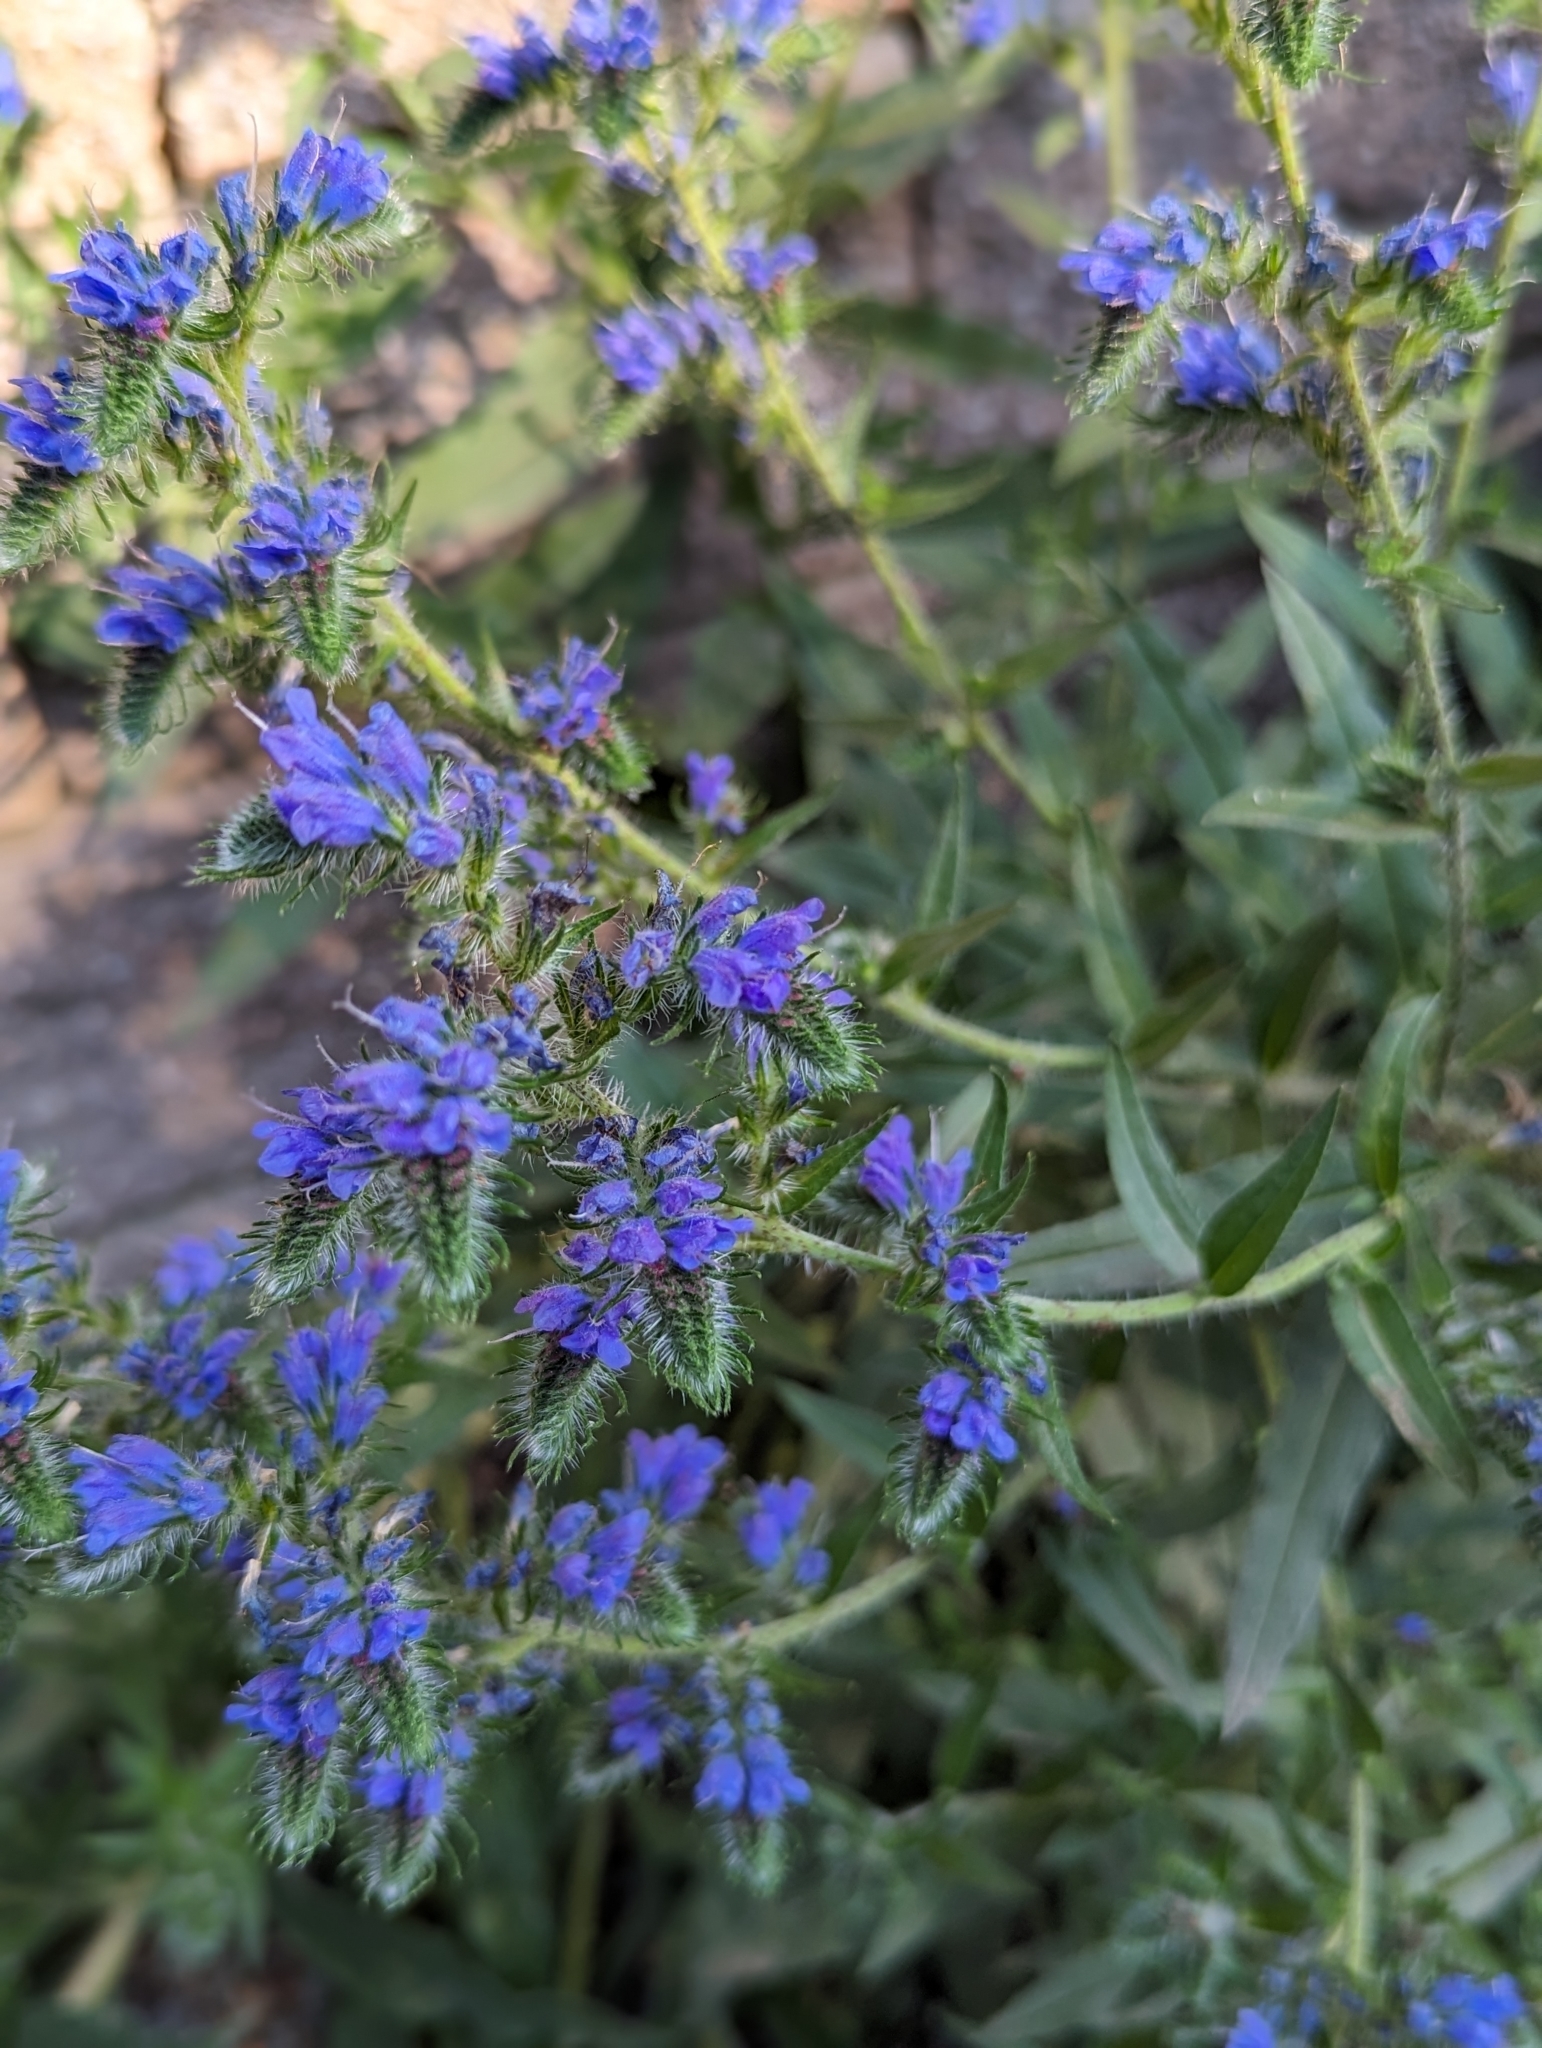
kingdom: Plantae
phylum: Tracheophyta
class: Magnoliopsida
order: Boraginales
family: Boraginaceae
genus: Echium
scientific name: Echium vulgare
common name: Common viper's bugloss
